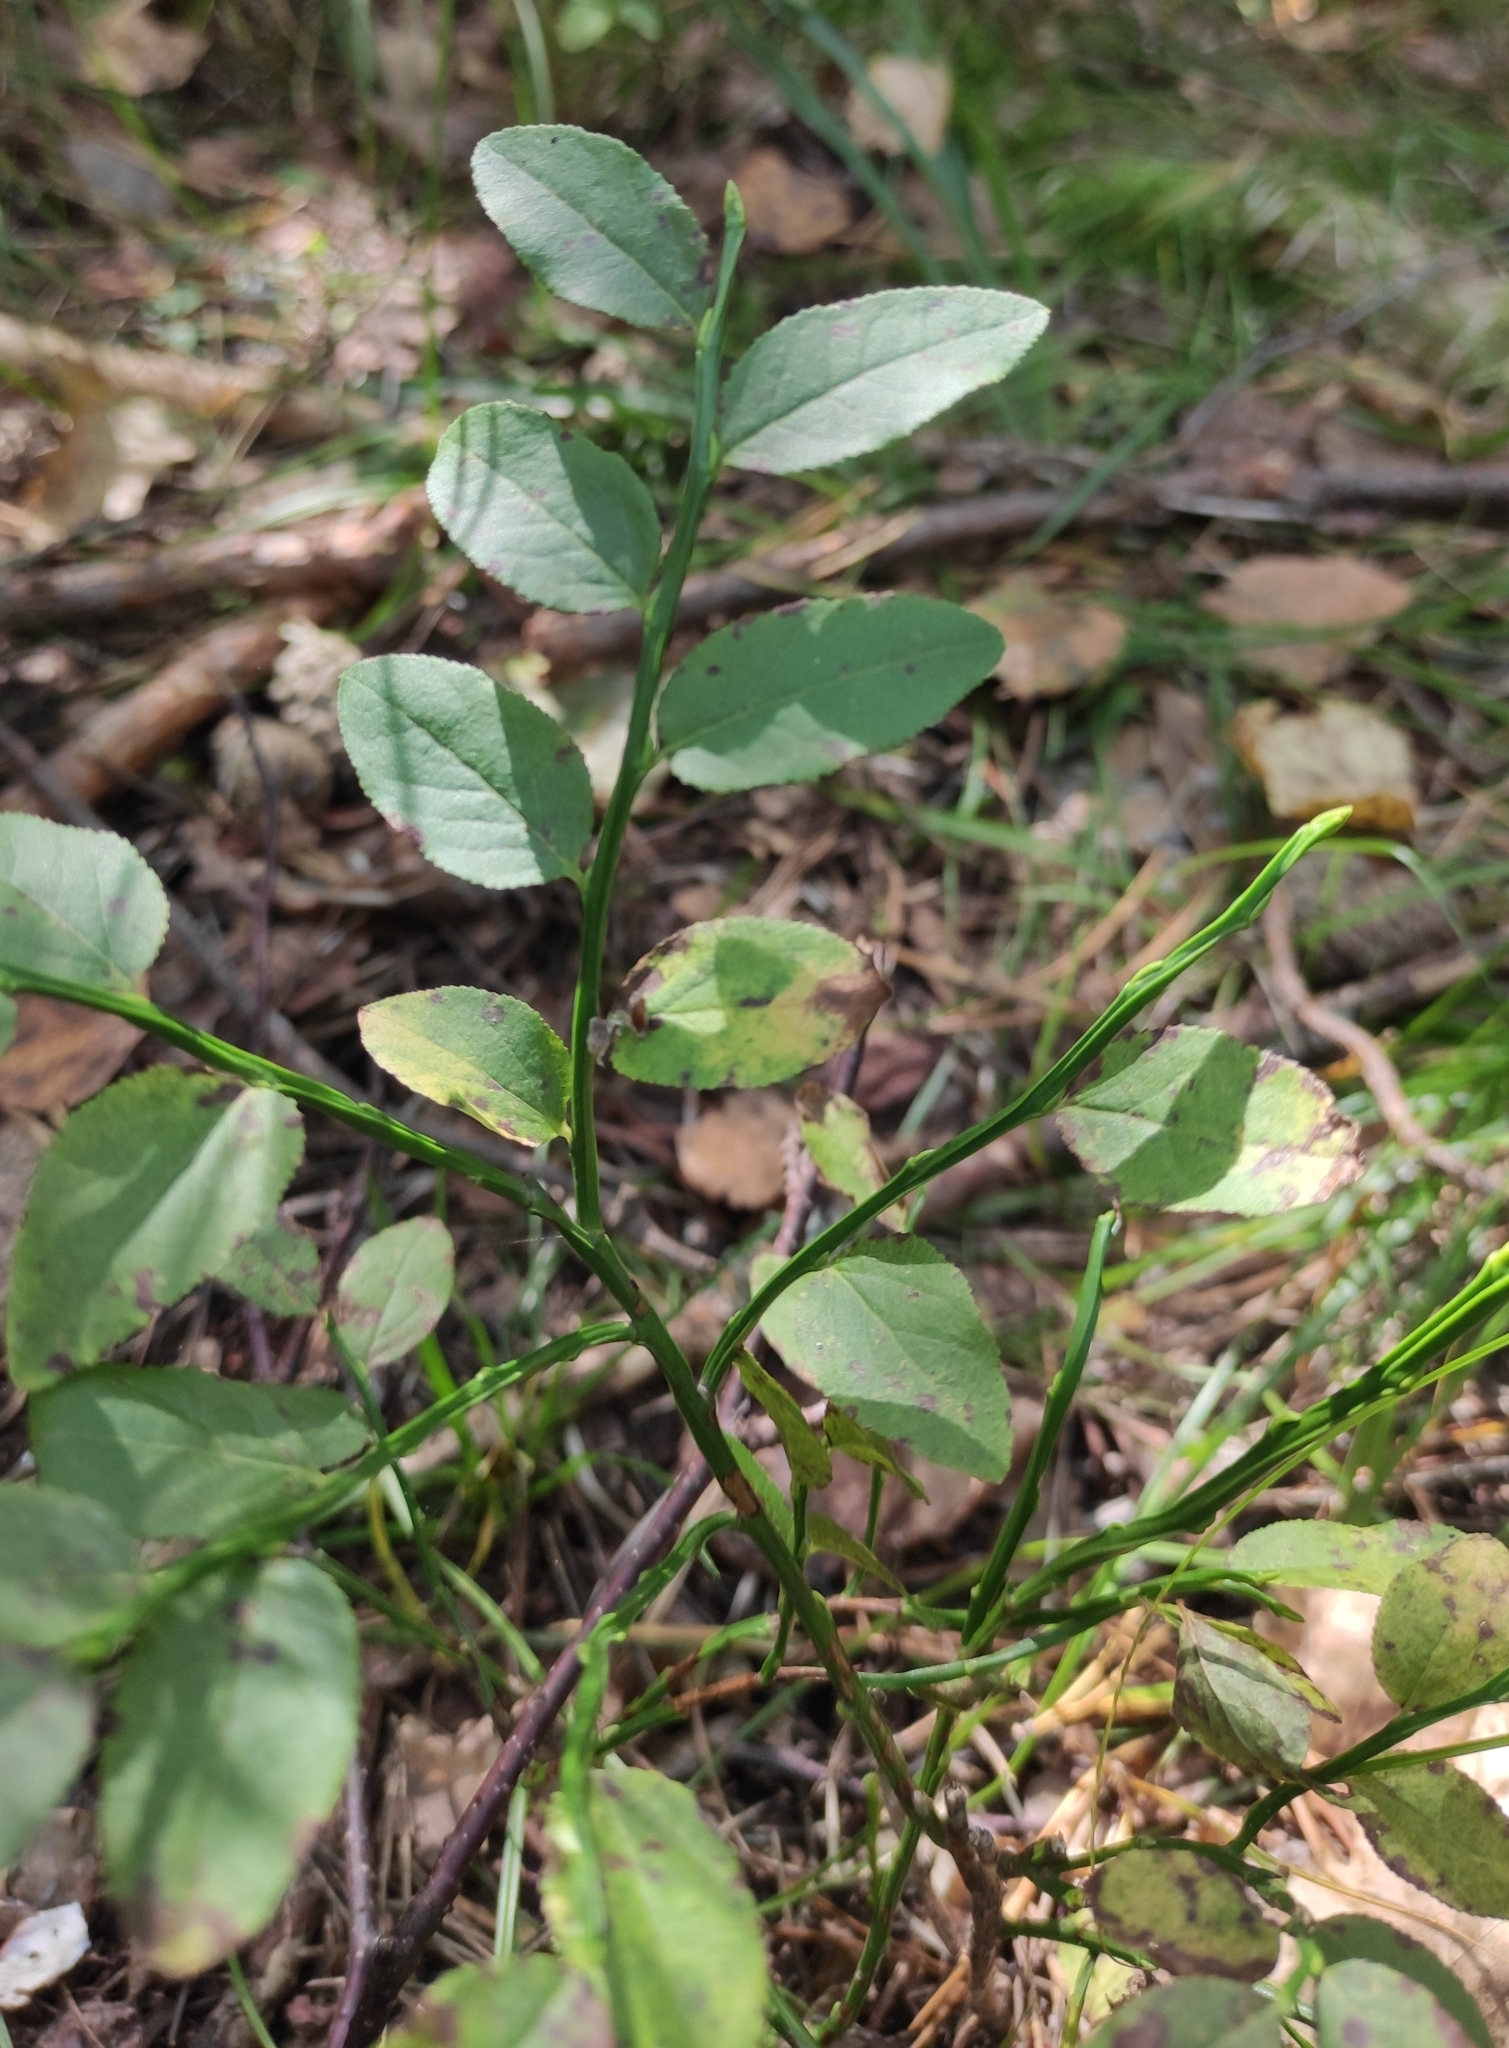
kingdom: Plantae
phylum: Tracheophyta
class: Magnoliopsida
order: Ericales
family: Ericaceae
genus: Vaccinium
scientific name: Vaccinium myrtillus
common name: Bilberry
